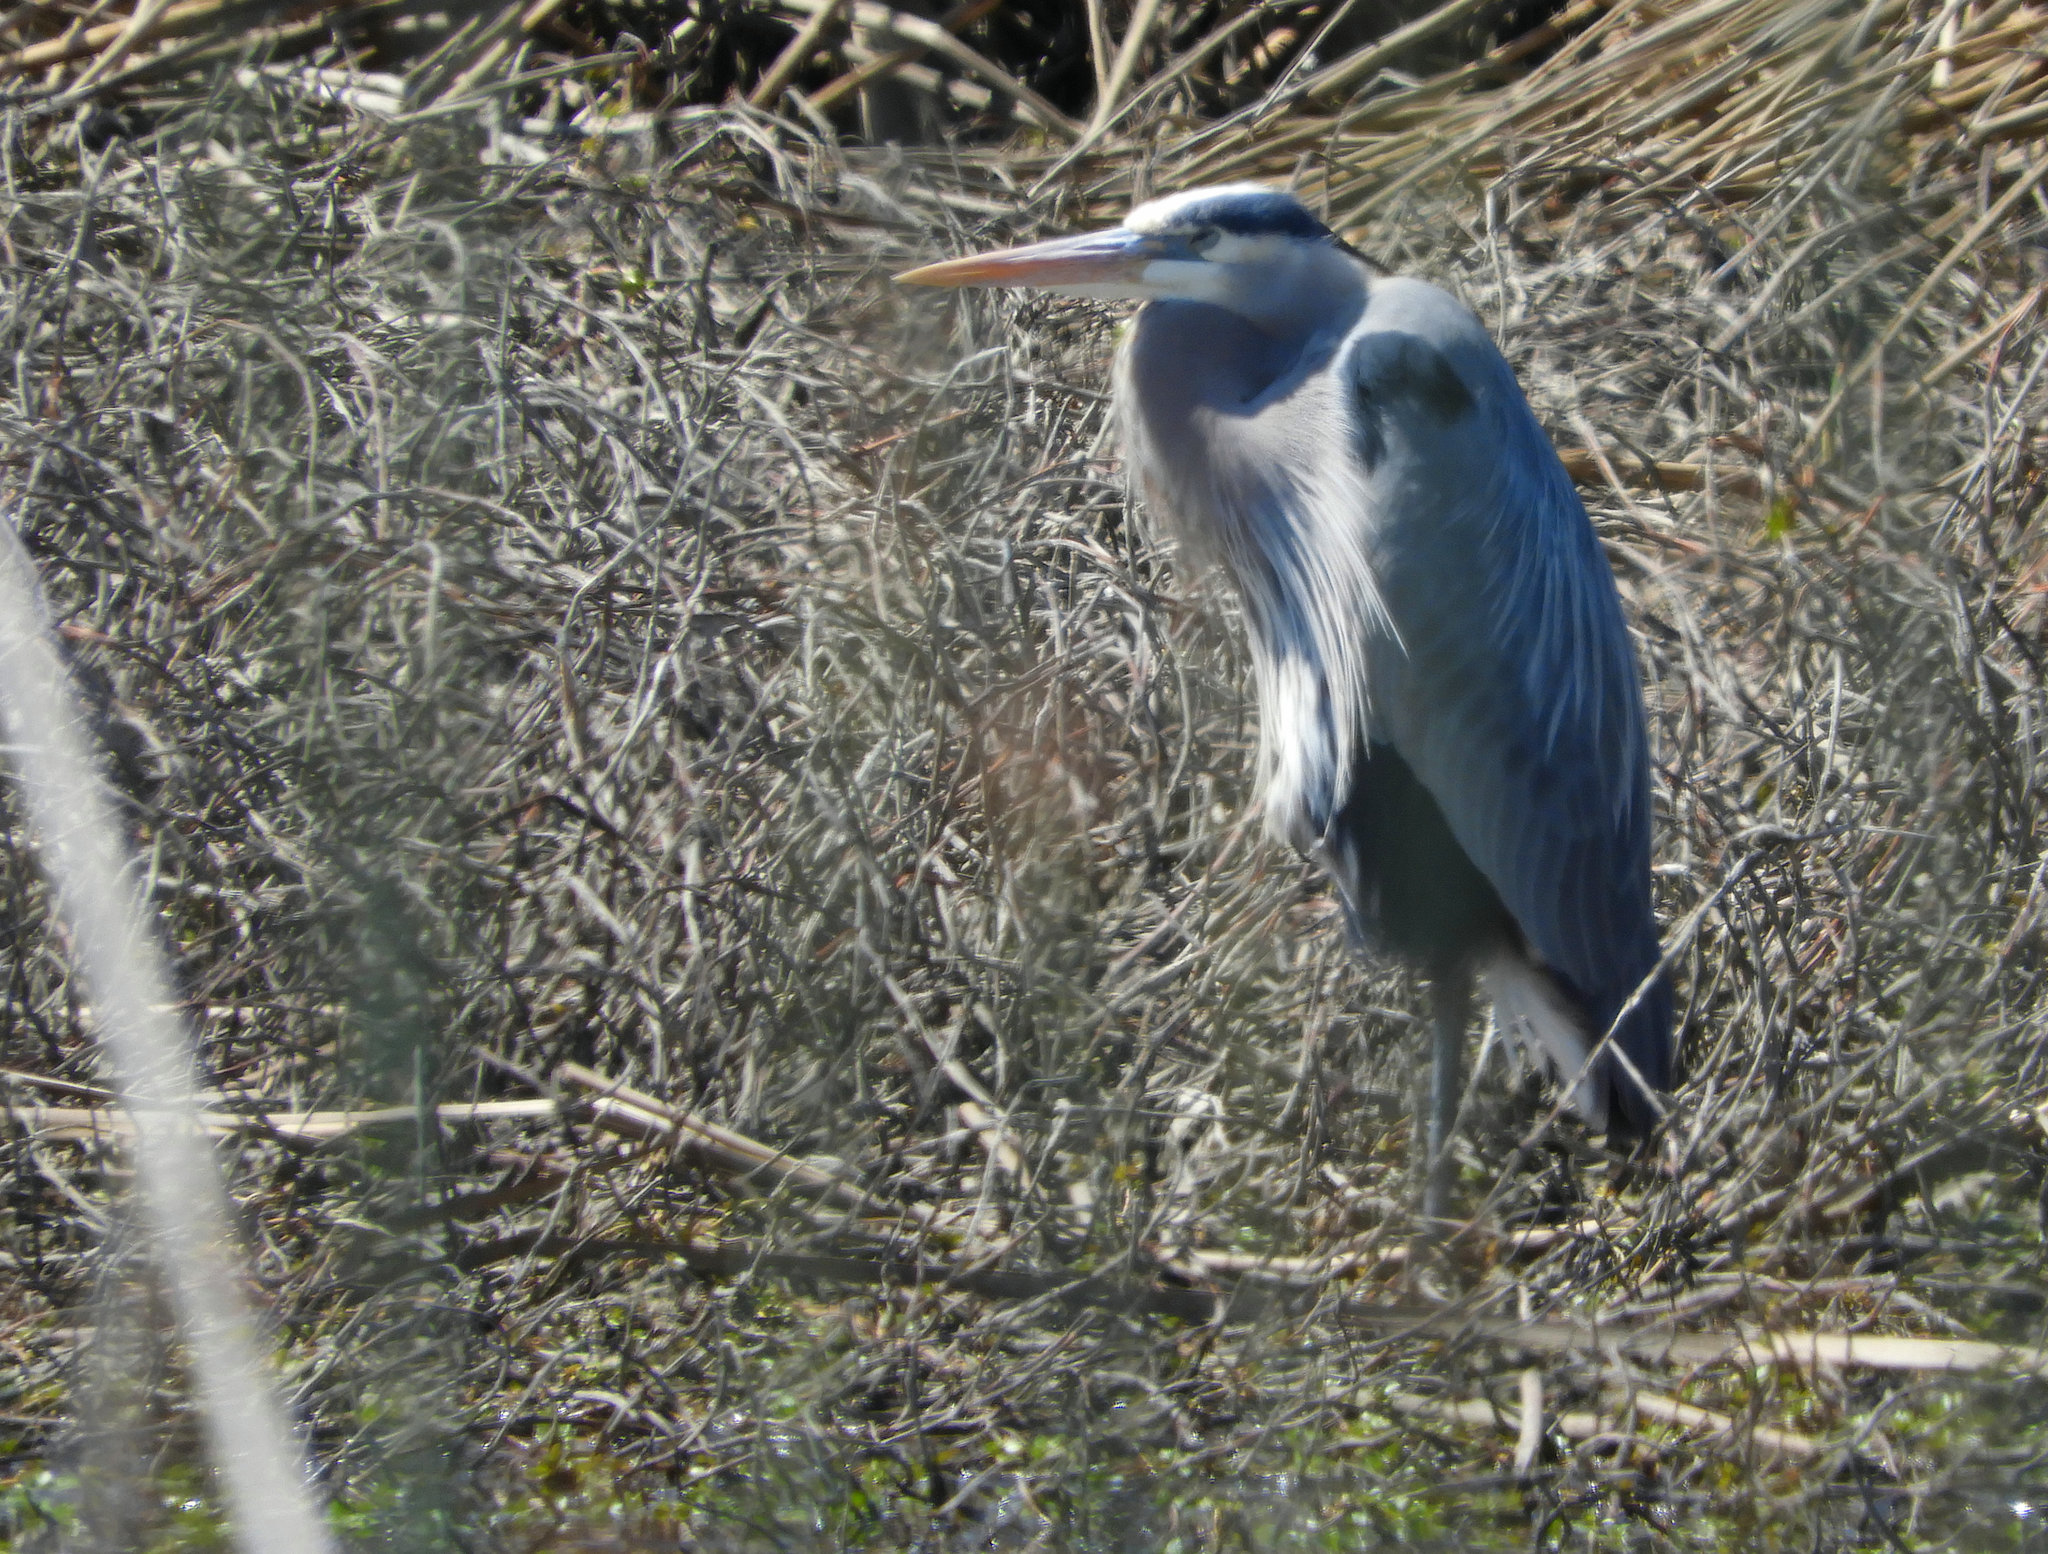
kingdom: Animalia
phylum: Chordata
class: Aves
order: Pelecaniformes
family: Ardeidae
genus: Ardea
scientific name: Ardea herodias
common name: Great blue heron
